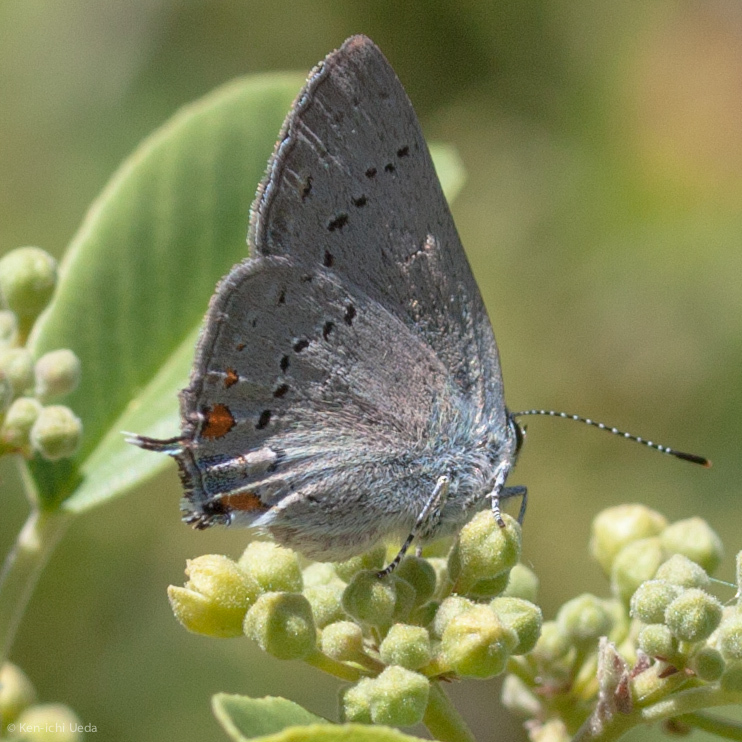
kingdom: Animalia
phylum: Arthropoda
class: Insecta
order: Lepidoptera
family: Lycaenidae
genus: Strymon
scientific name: Strymon acadica
